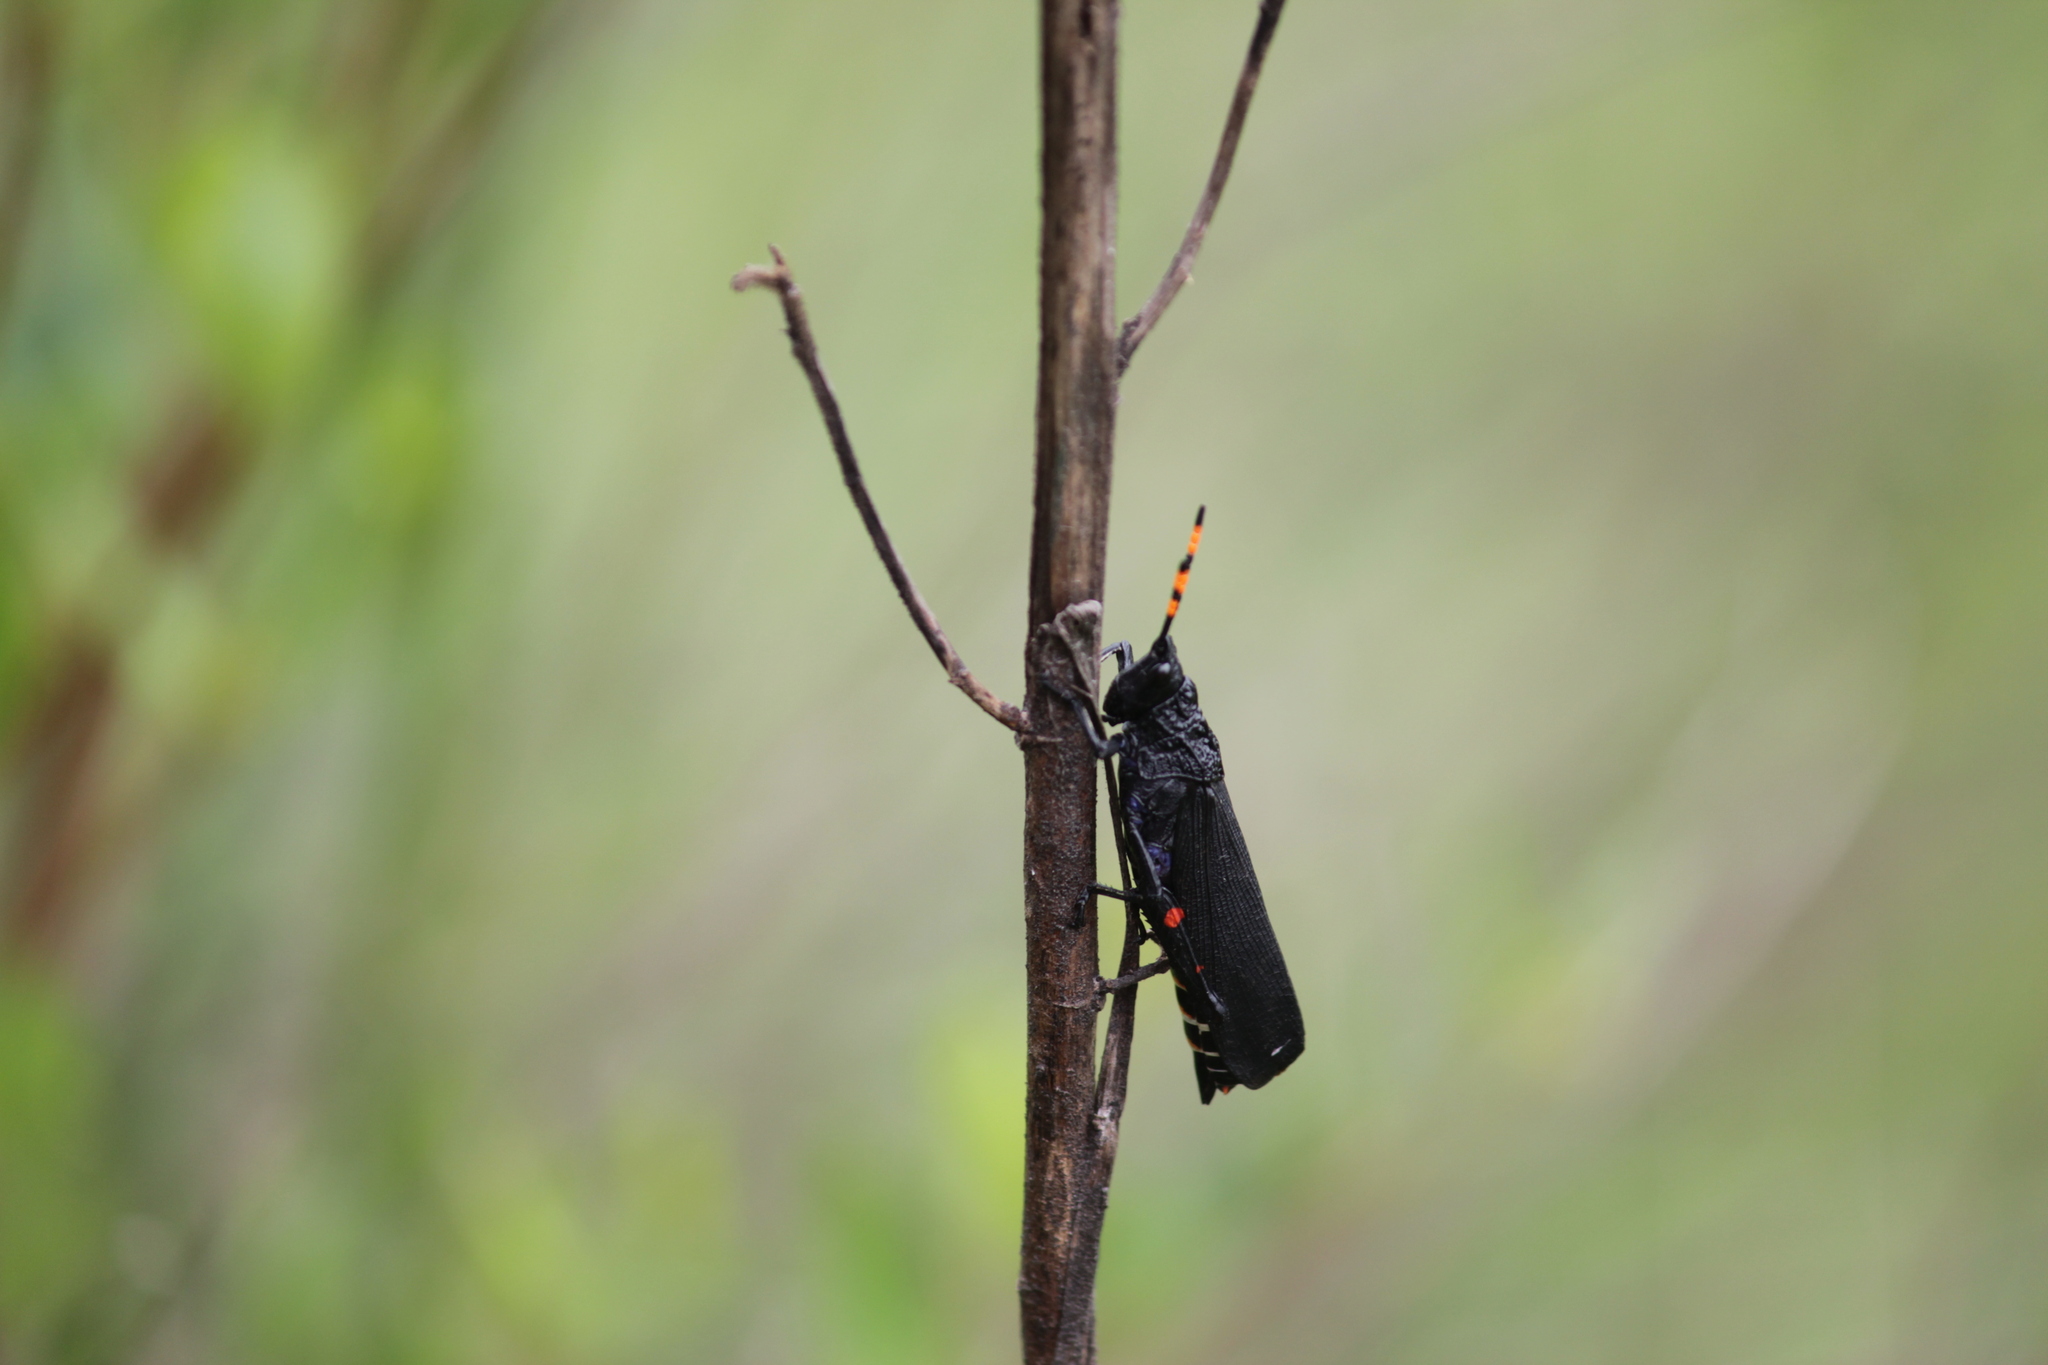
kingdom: Animalia
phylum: Arthropoda
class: Insecta
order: Orthoptera
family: Pyrgomorphidae
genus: Maura
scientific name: Maura rubroornata
